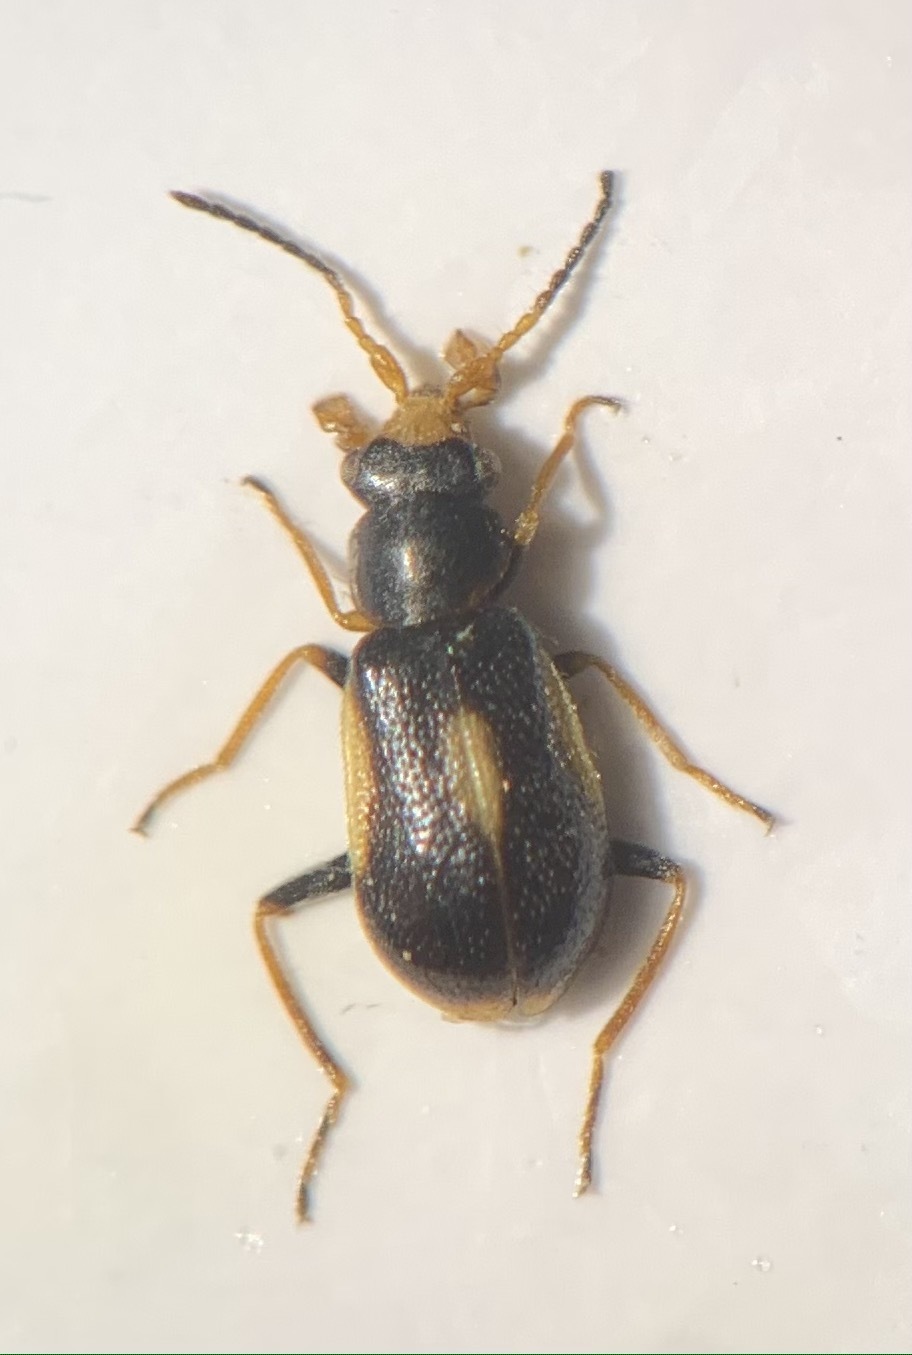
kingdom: Animalia
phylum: Arthropoda
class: Insecta
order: Coleoptera
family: Melyridae
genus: Colotes
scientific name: Colotes maculatus
